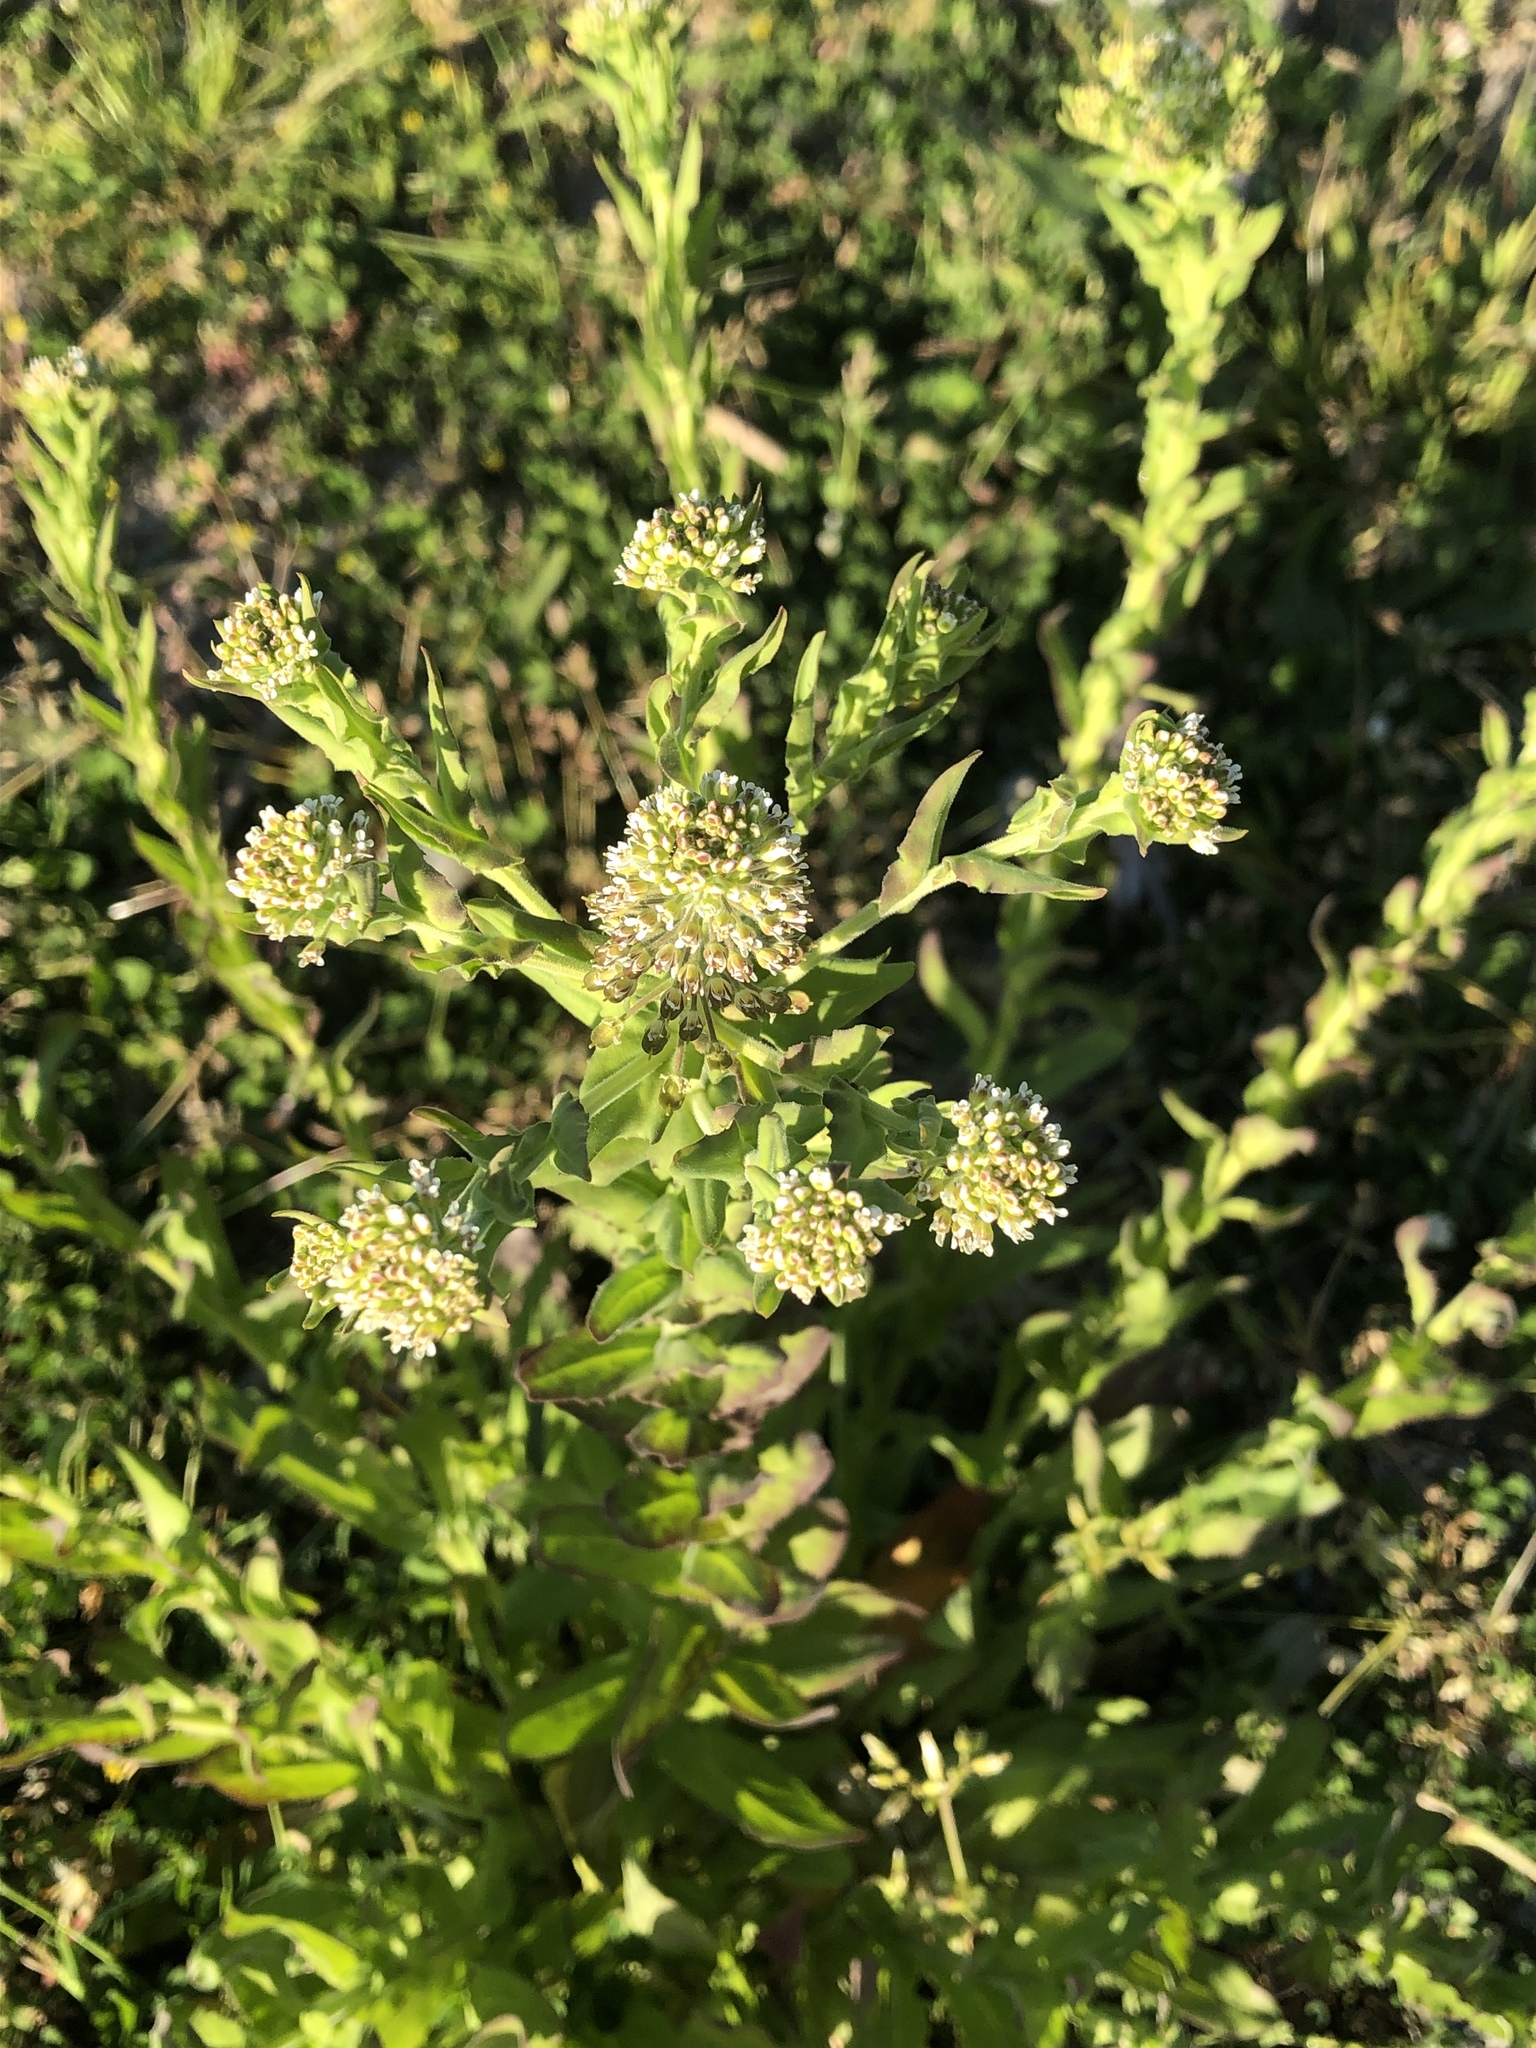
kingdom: Plantae
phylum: Tracheophyta
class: Magnoliopsida
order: Brassicales
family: Brassicaceae
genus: Lepidium
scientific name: Lepidium campestre
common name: Field pepperwort
